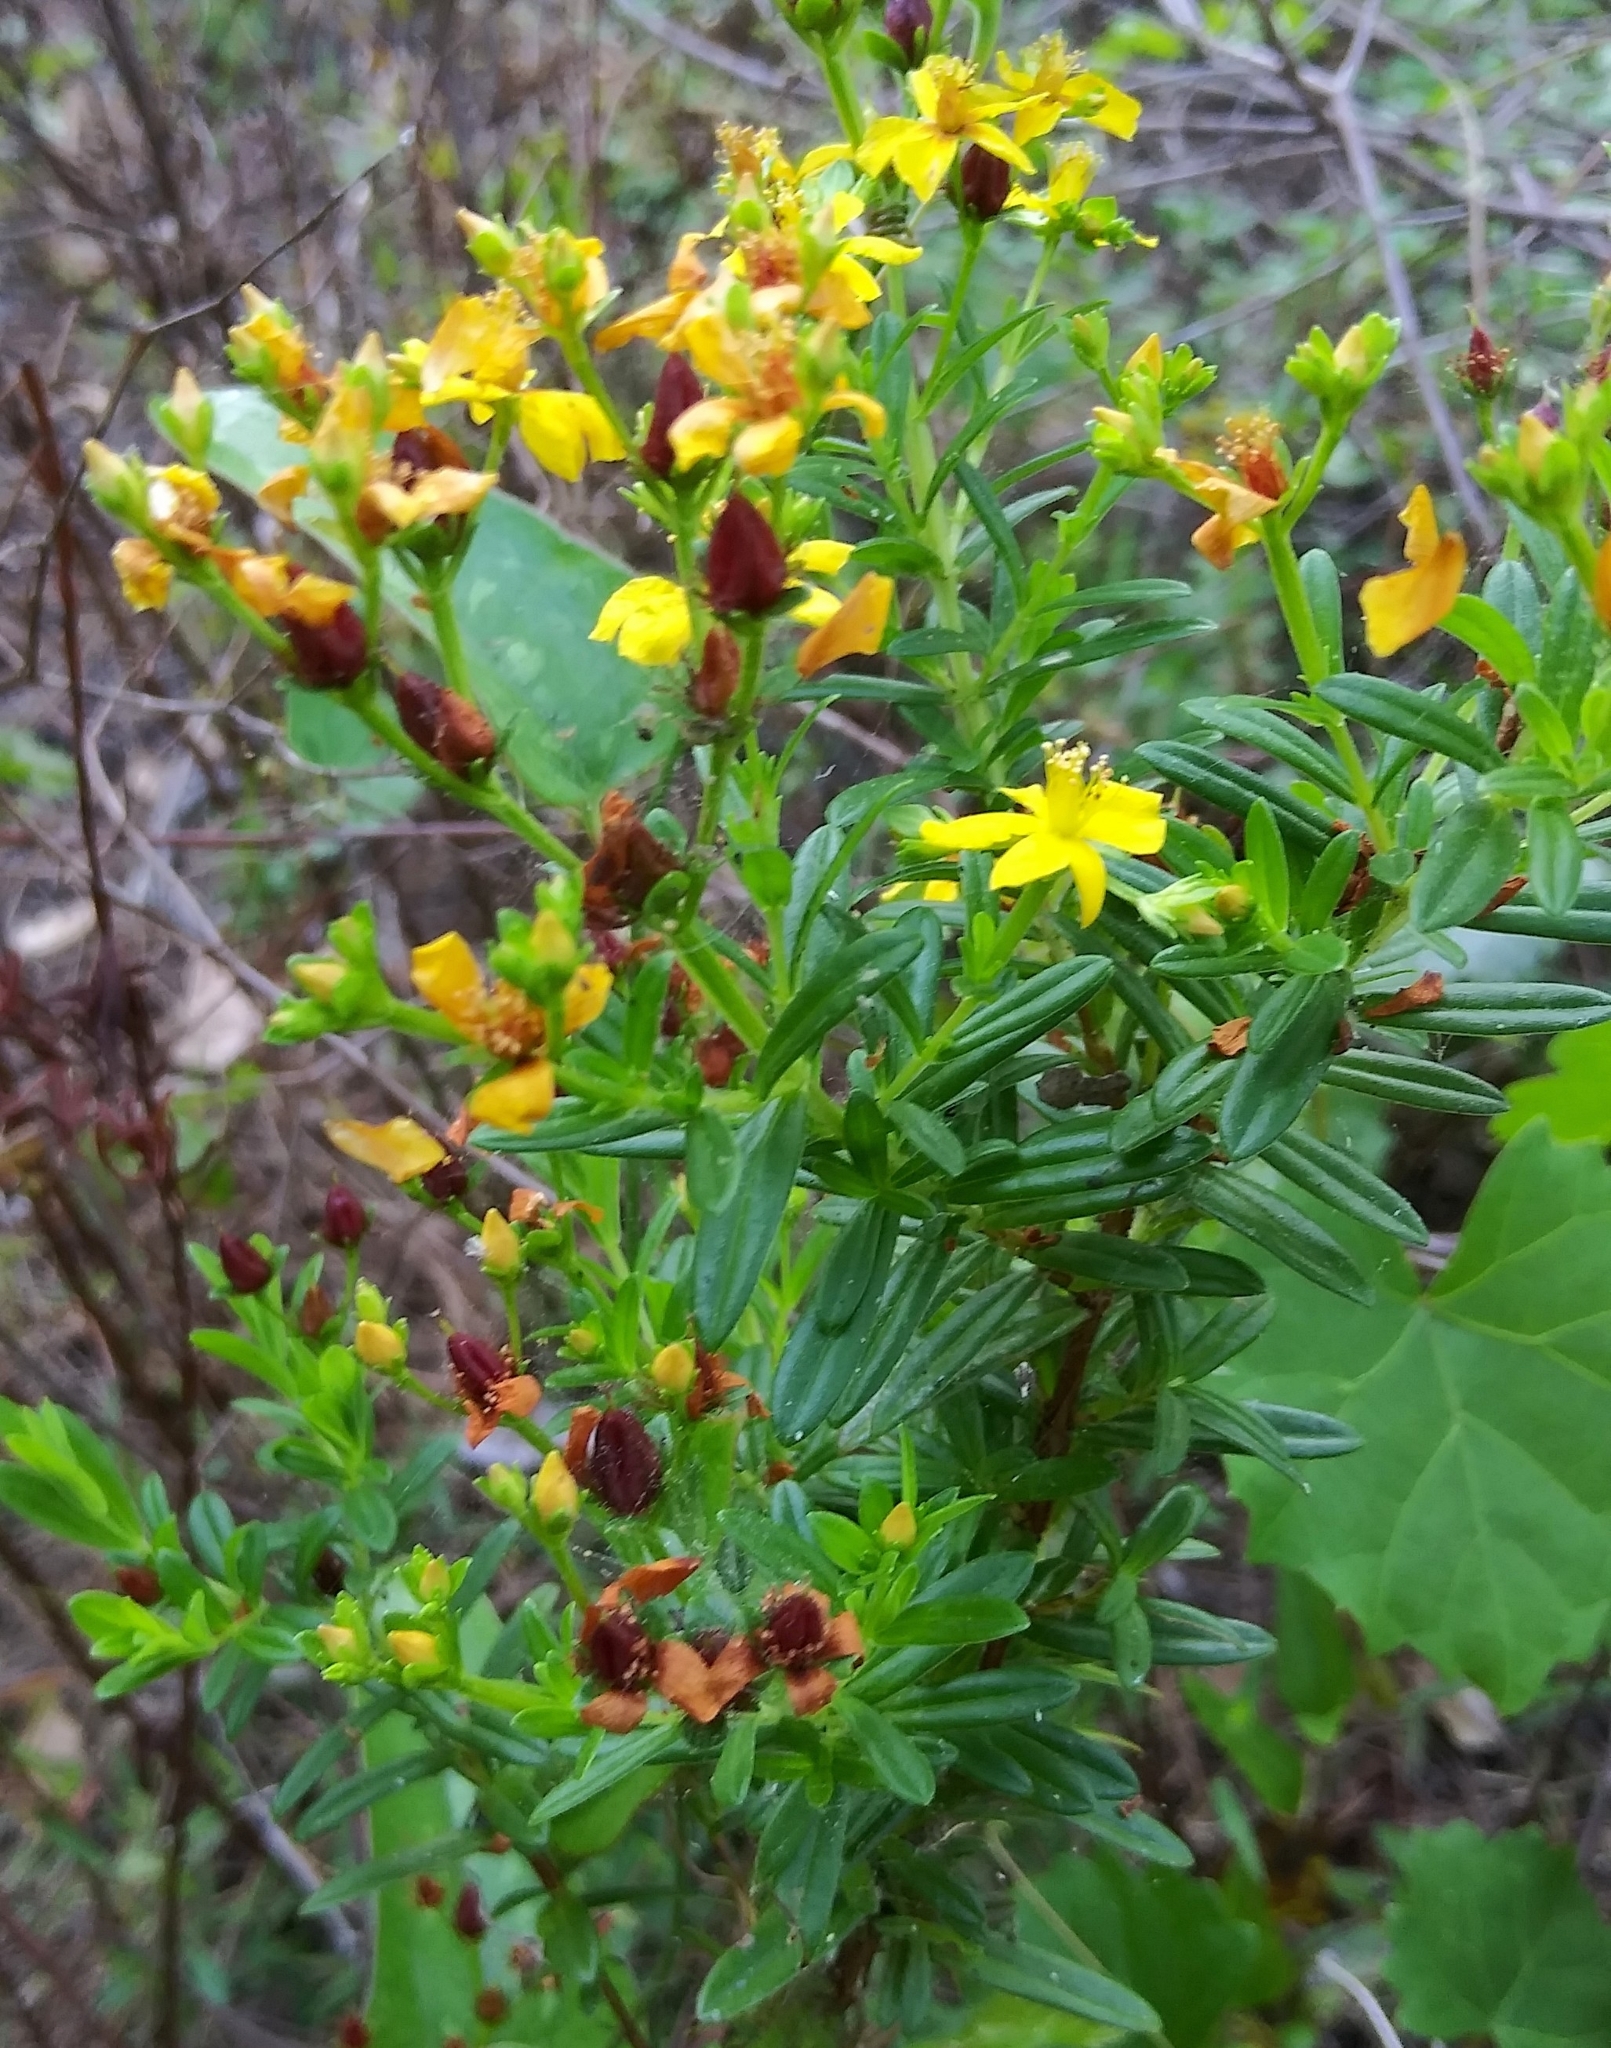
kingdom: Plantae
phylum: Tracheophyta
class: Magnoliopsida
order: Malpighiales
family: Hypericaceae
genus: Hypericum
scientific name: Hypericum cistifolium
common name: Round-pod st. john's-wort
